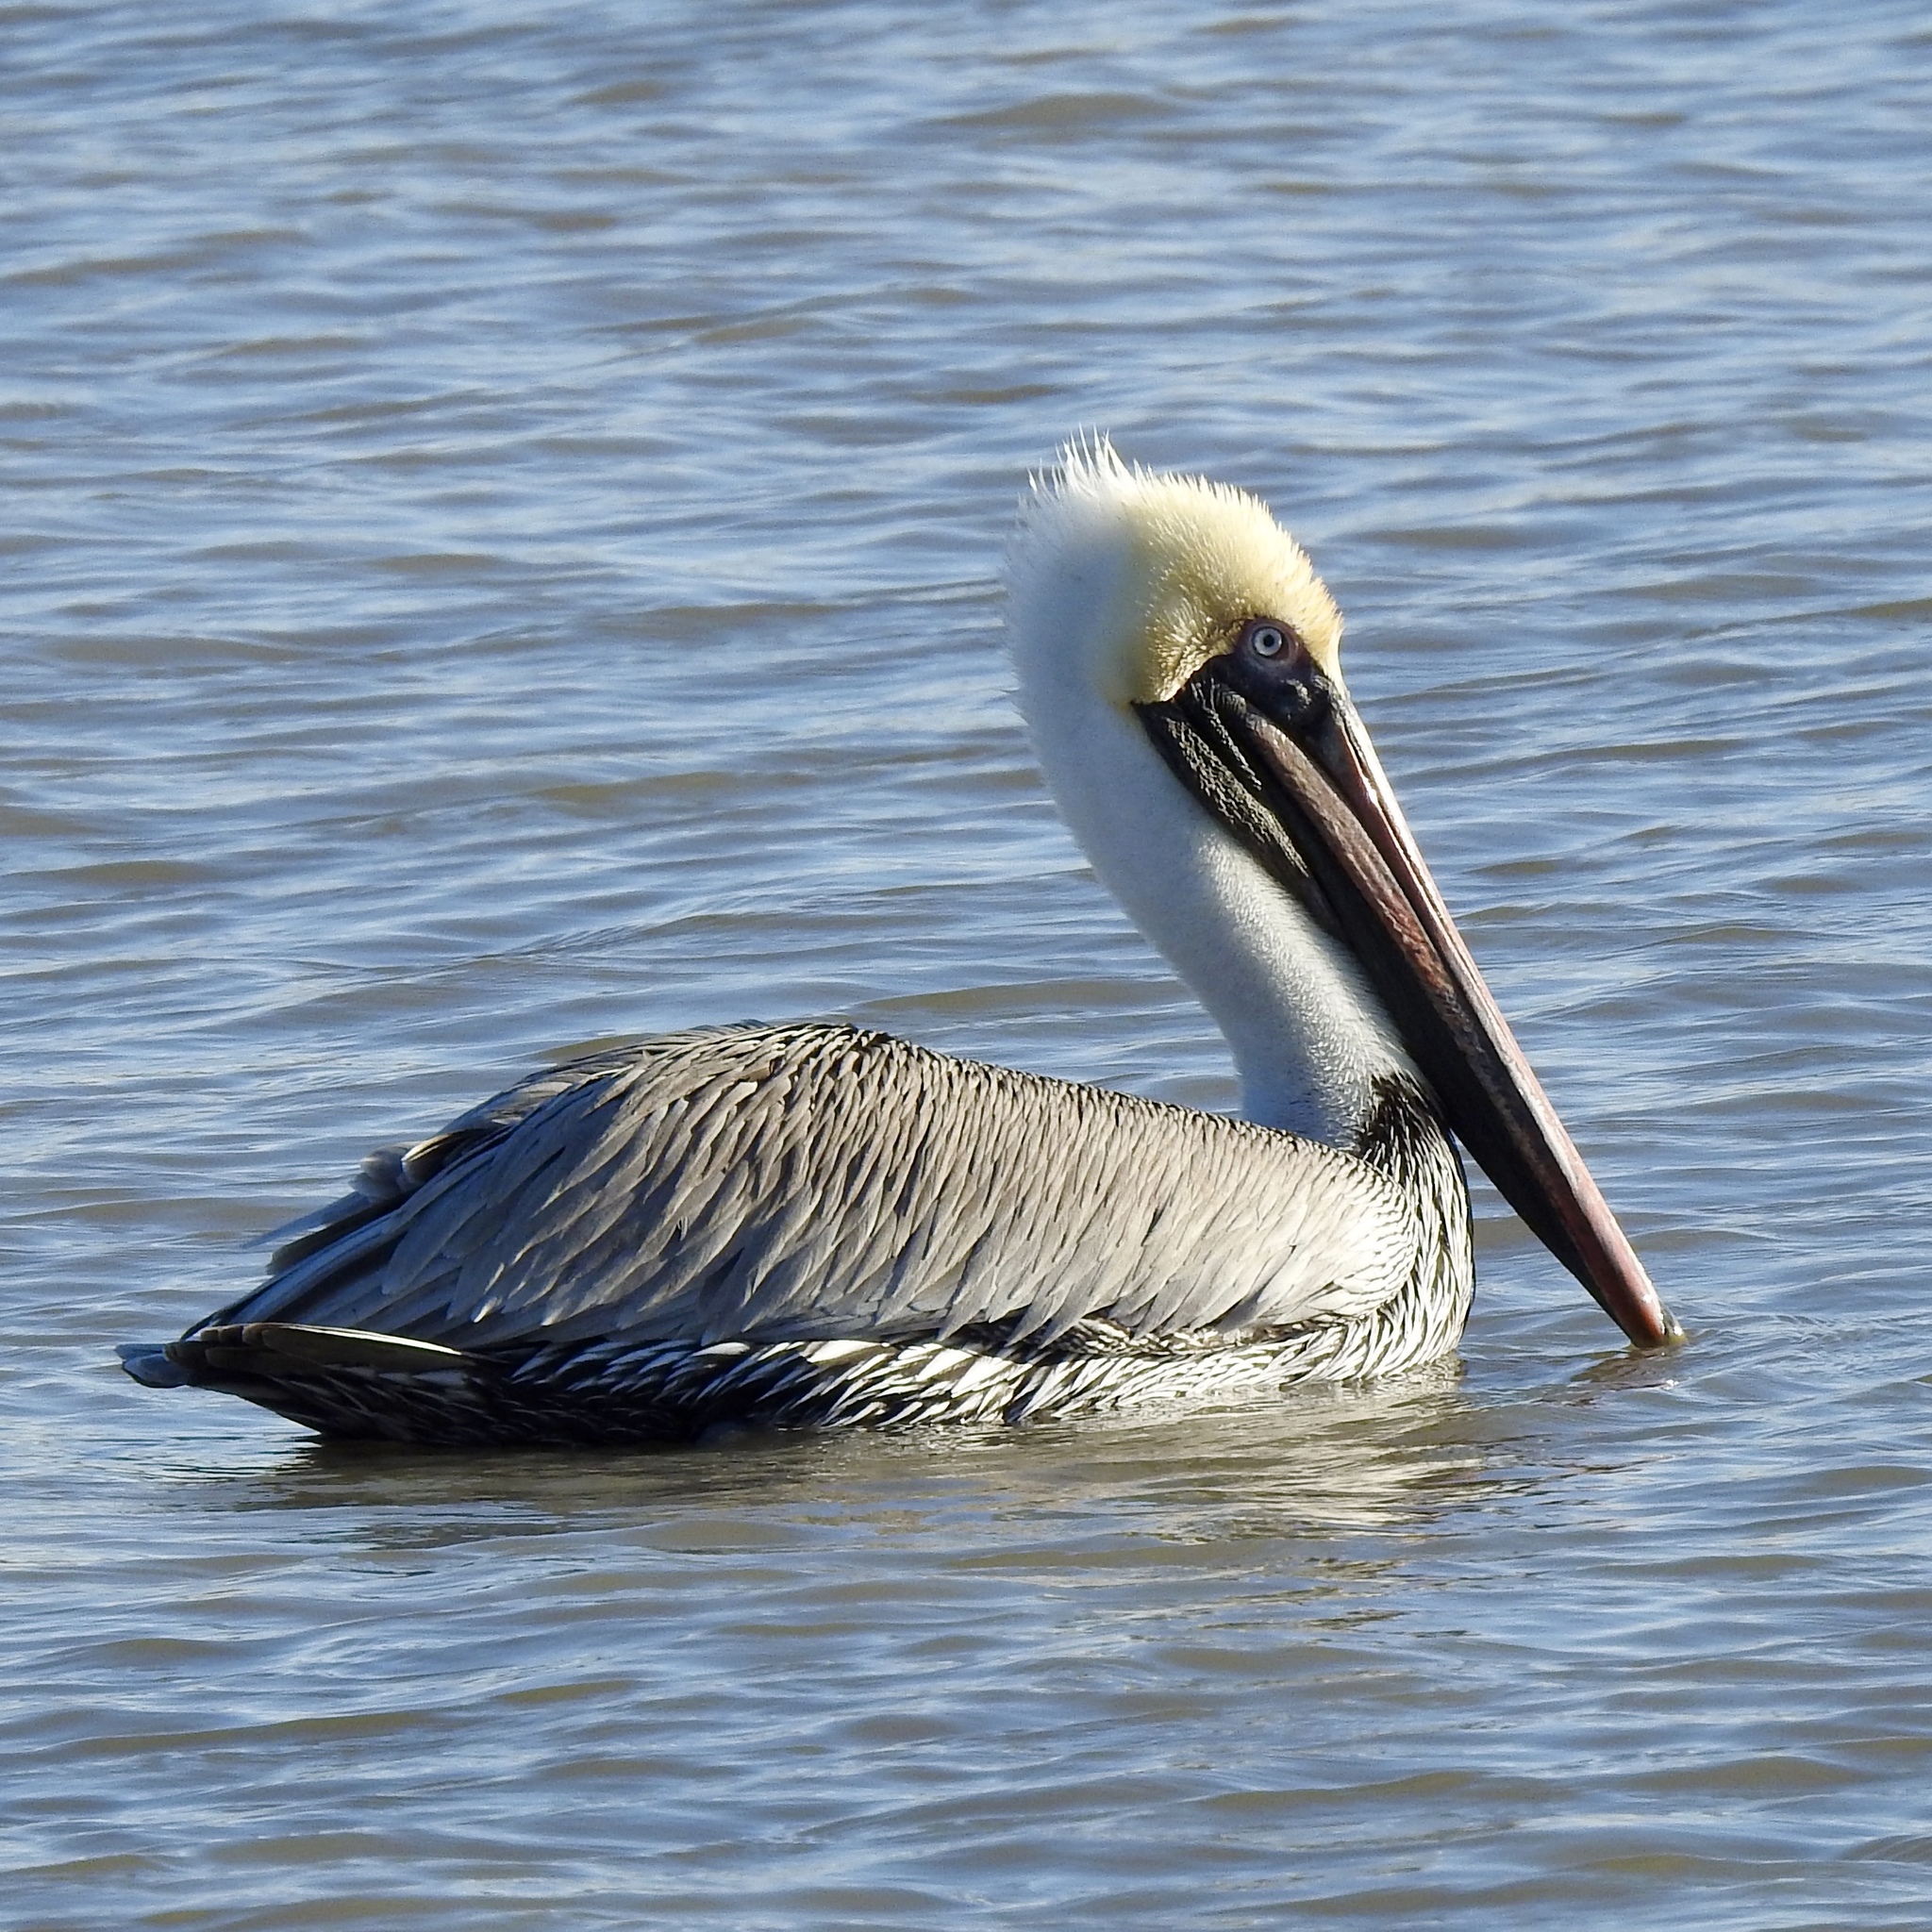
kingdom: Animalia
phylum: Chordata
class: Aves
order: Pelecaniformes
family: Pelecanidae
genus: Pelecanus
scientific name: Pelecanus occidentalis
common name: Brown pelican
